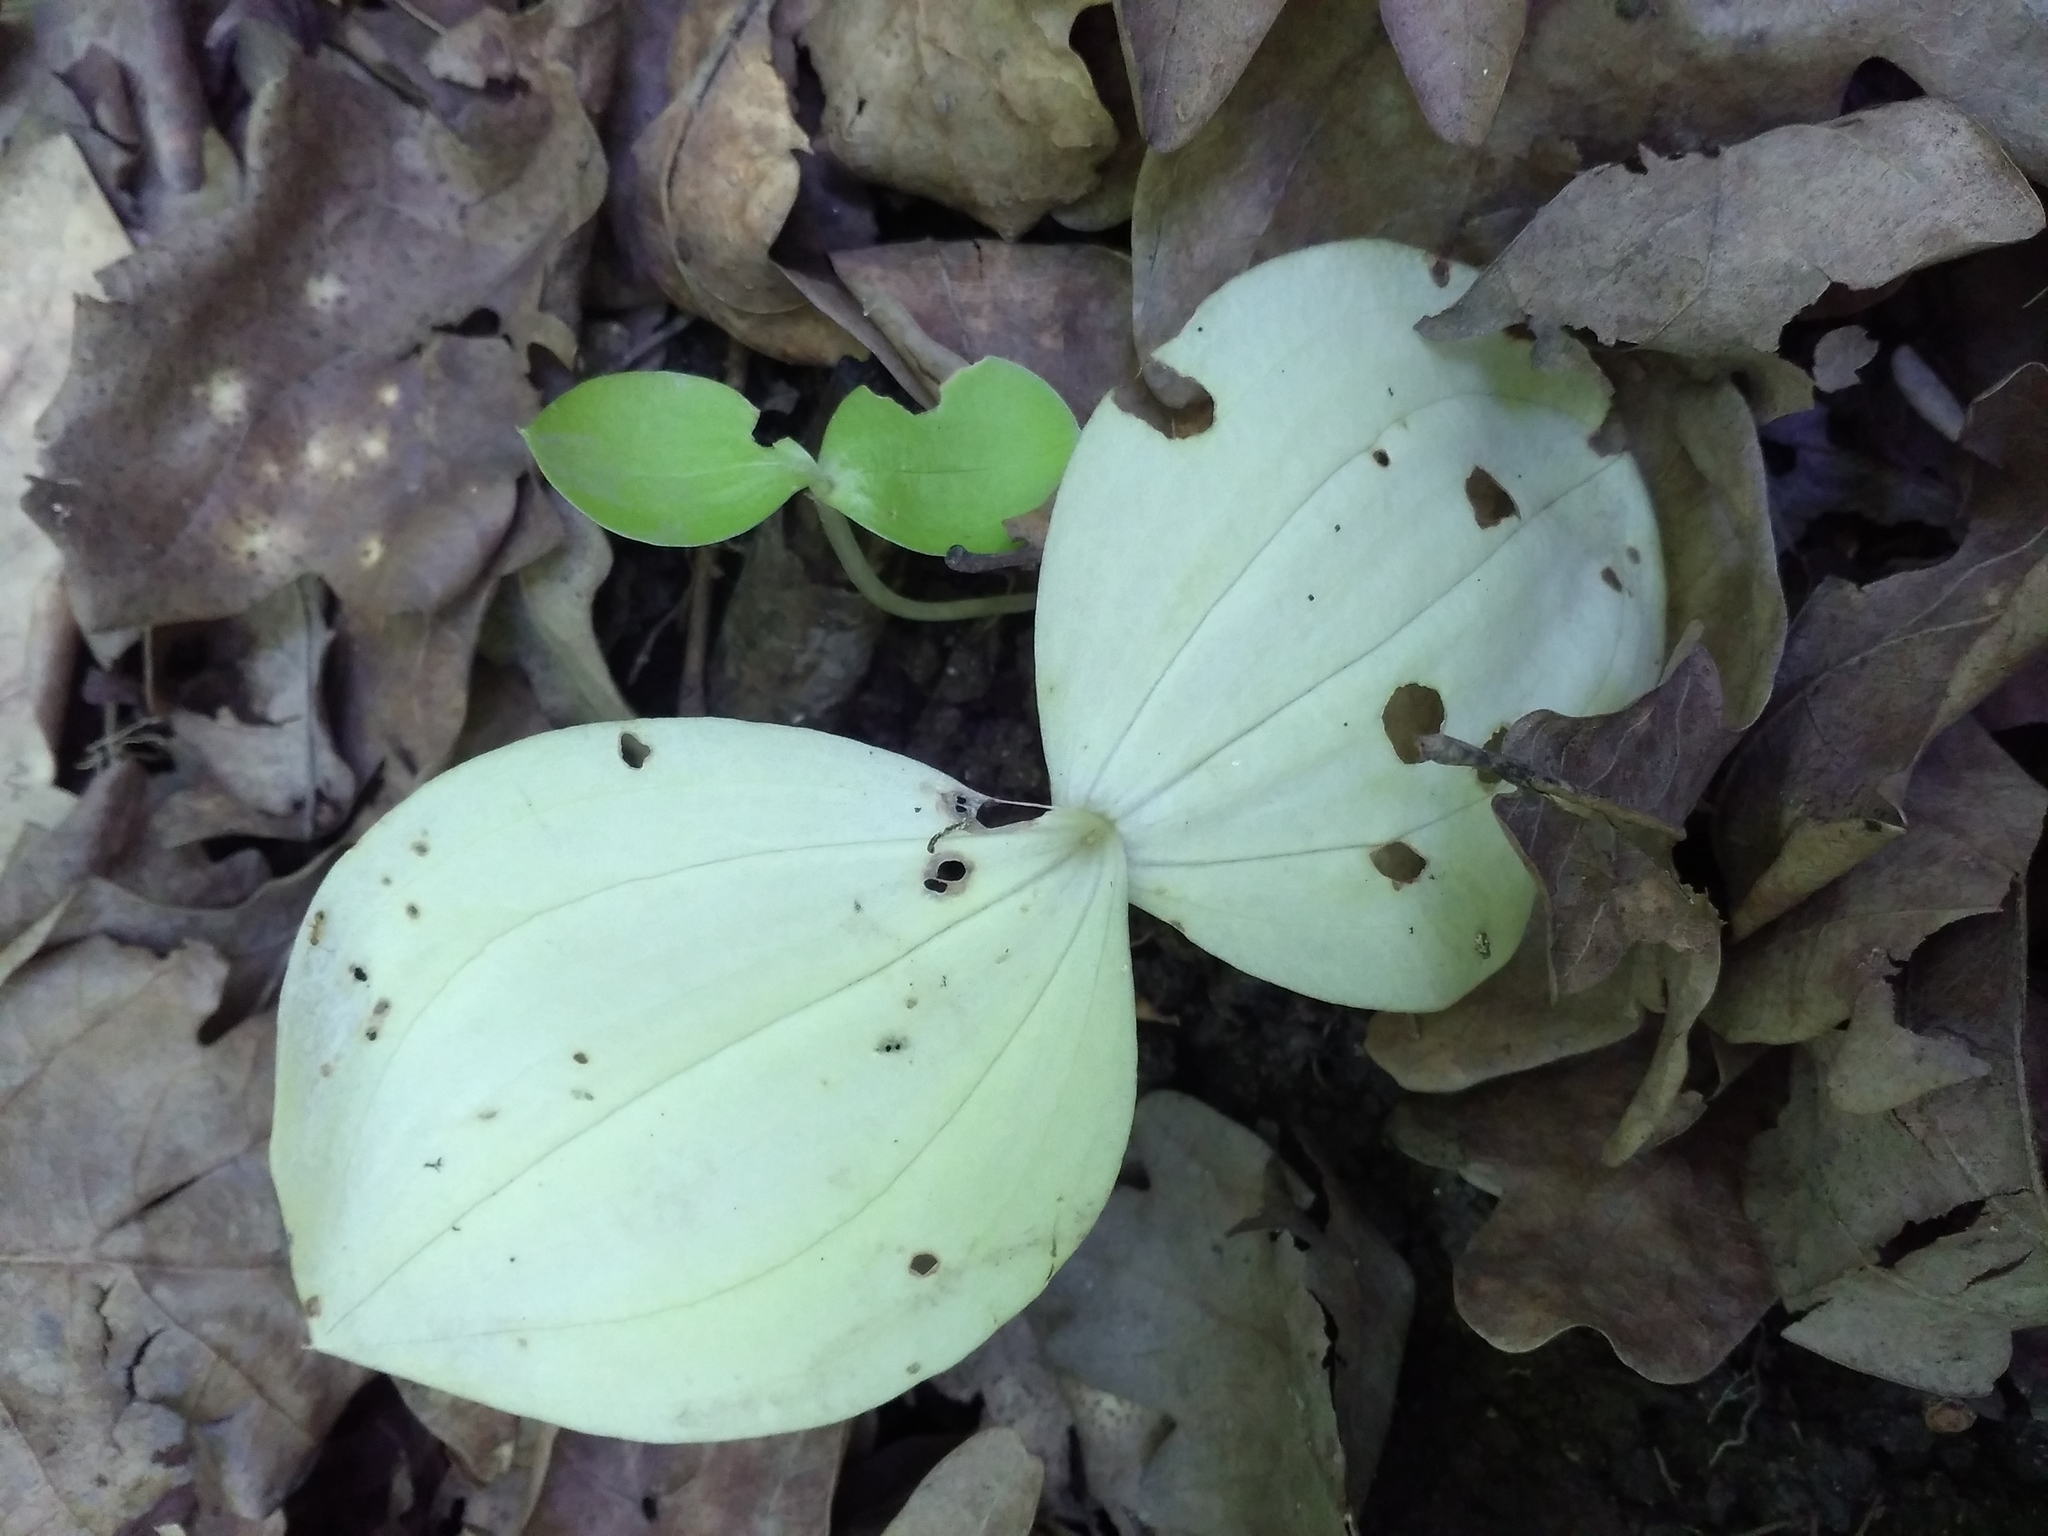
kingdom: Plantae
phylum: Tracheophyta
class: Liliopsida
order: Asparagales
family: Orchidaceae
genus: Neottia
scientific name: Neottia ovata
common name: Common twayblade
